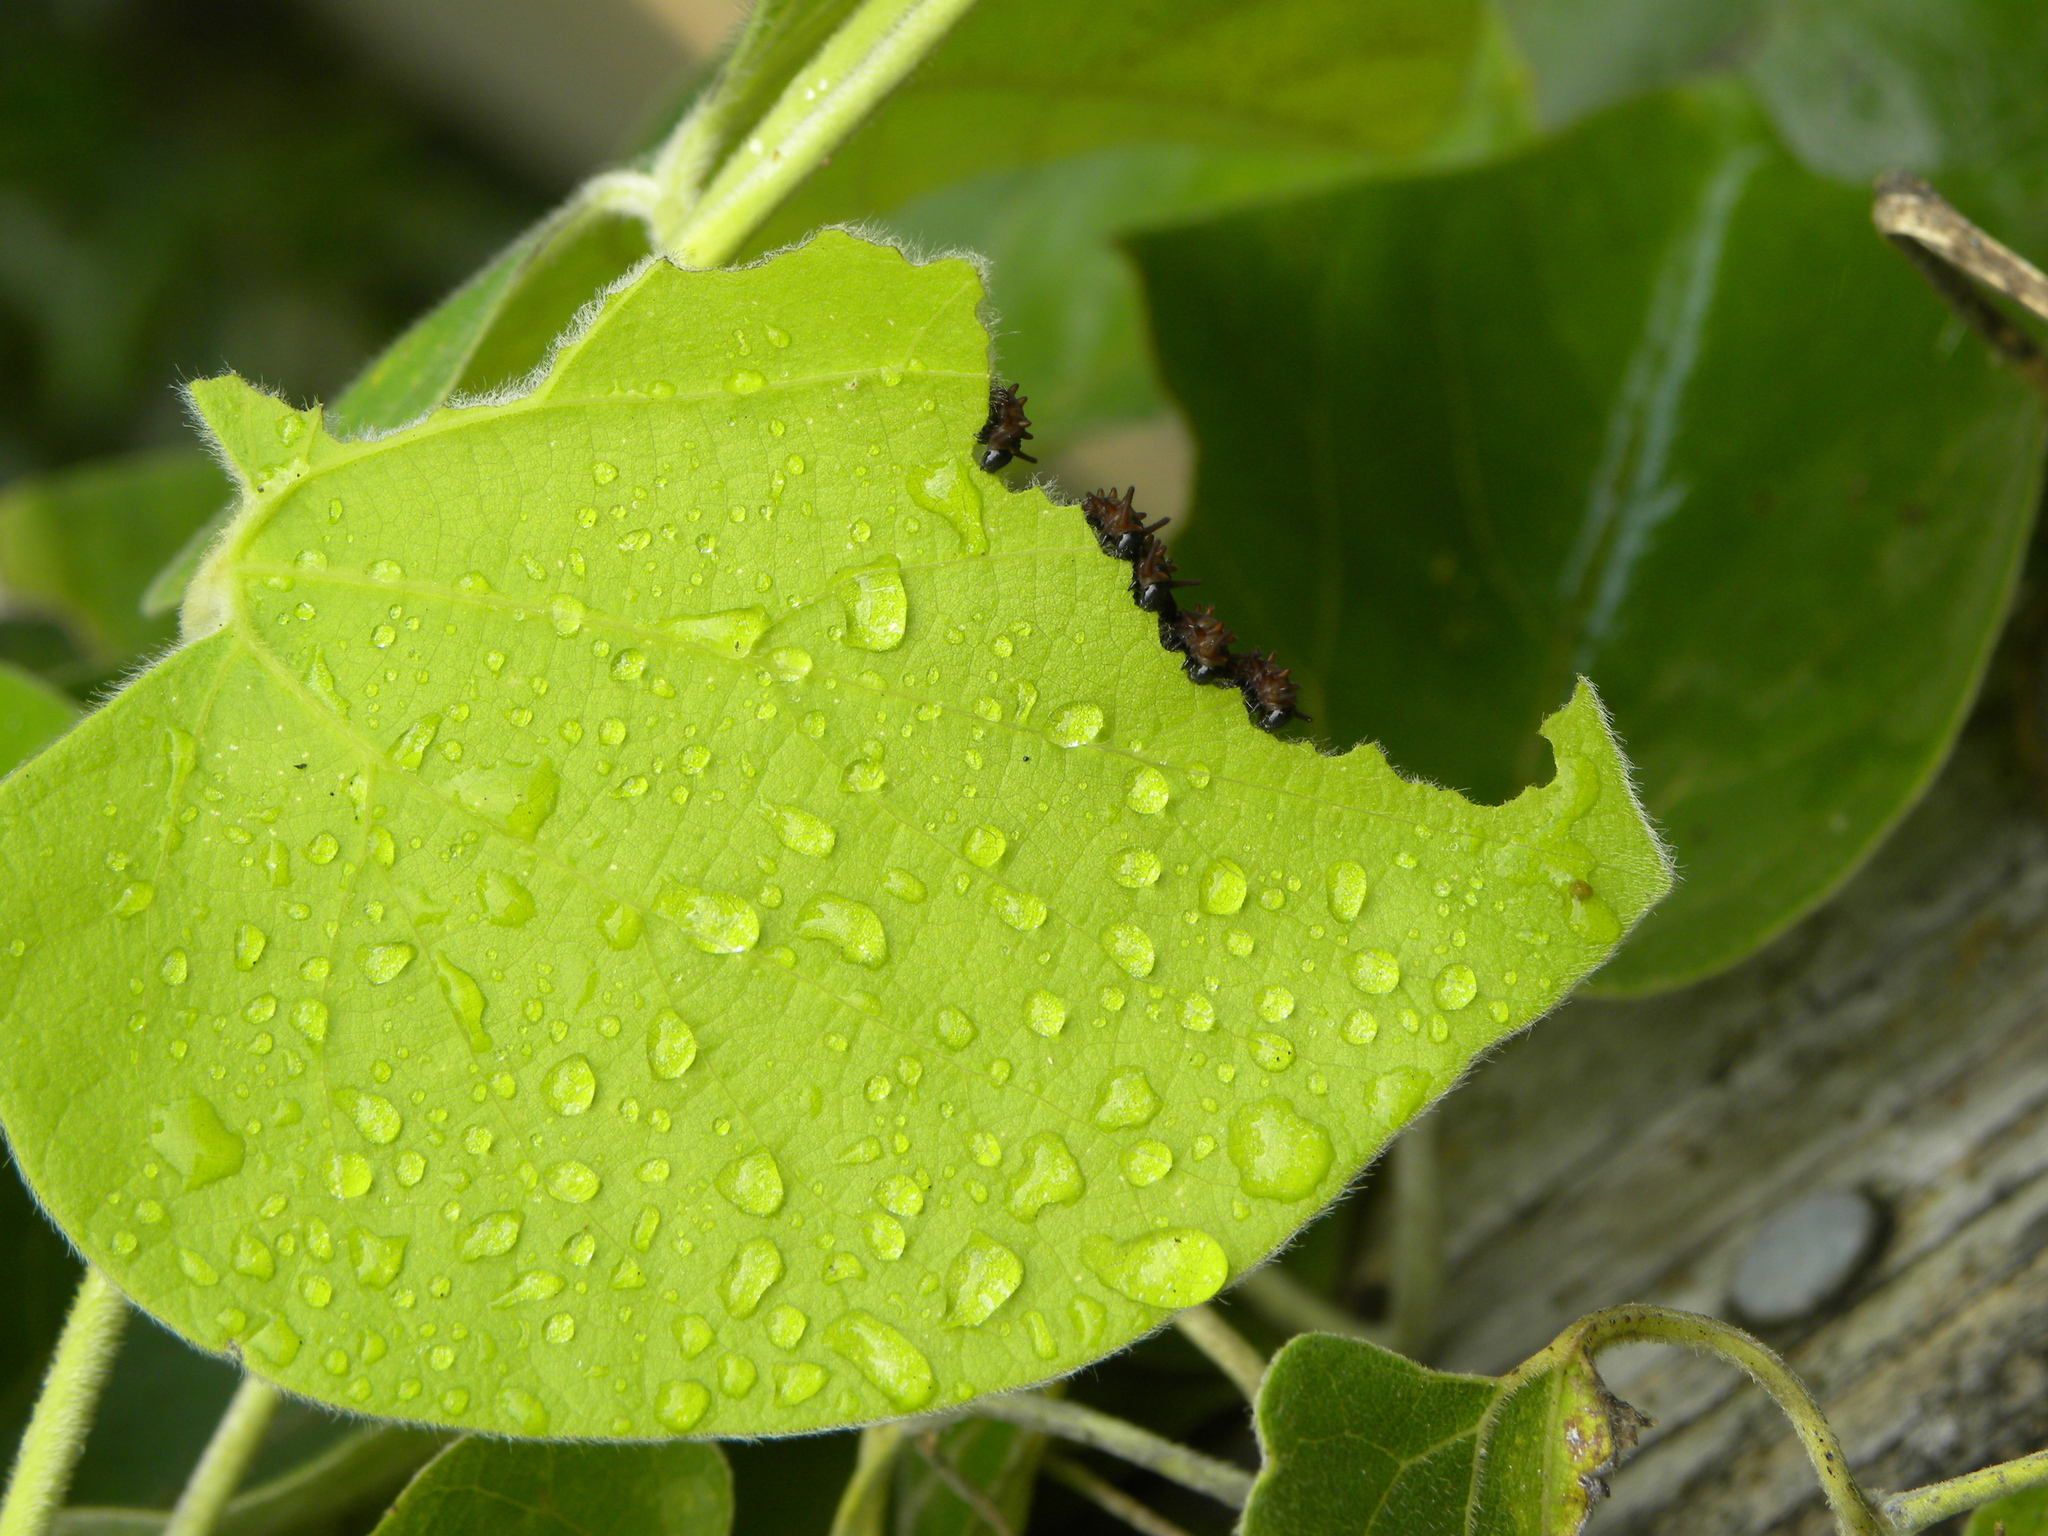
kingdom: Animalia
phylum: Arthropoda
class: Insecta
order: Lepidoptera
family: Papilionidae
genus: Battus
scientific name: Battus philenor
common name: Pipevine swallowtail
